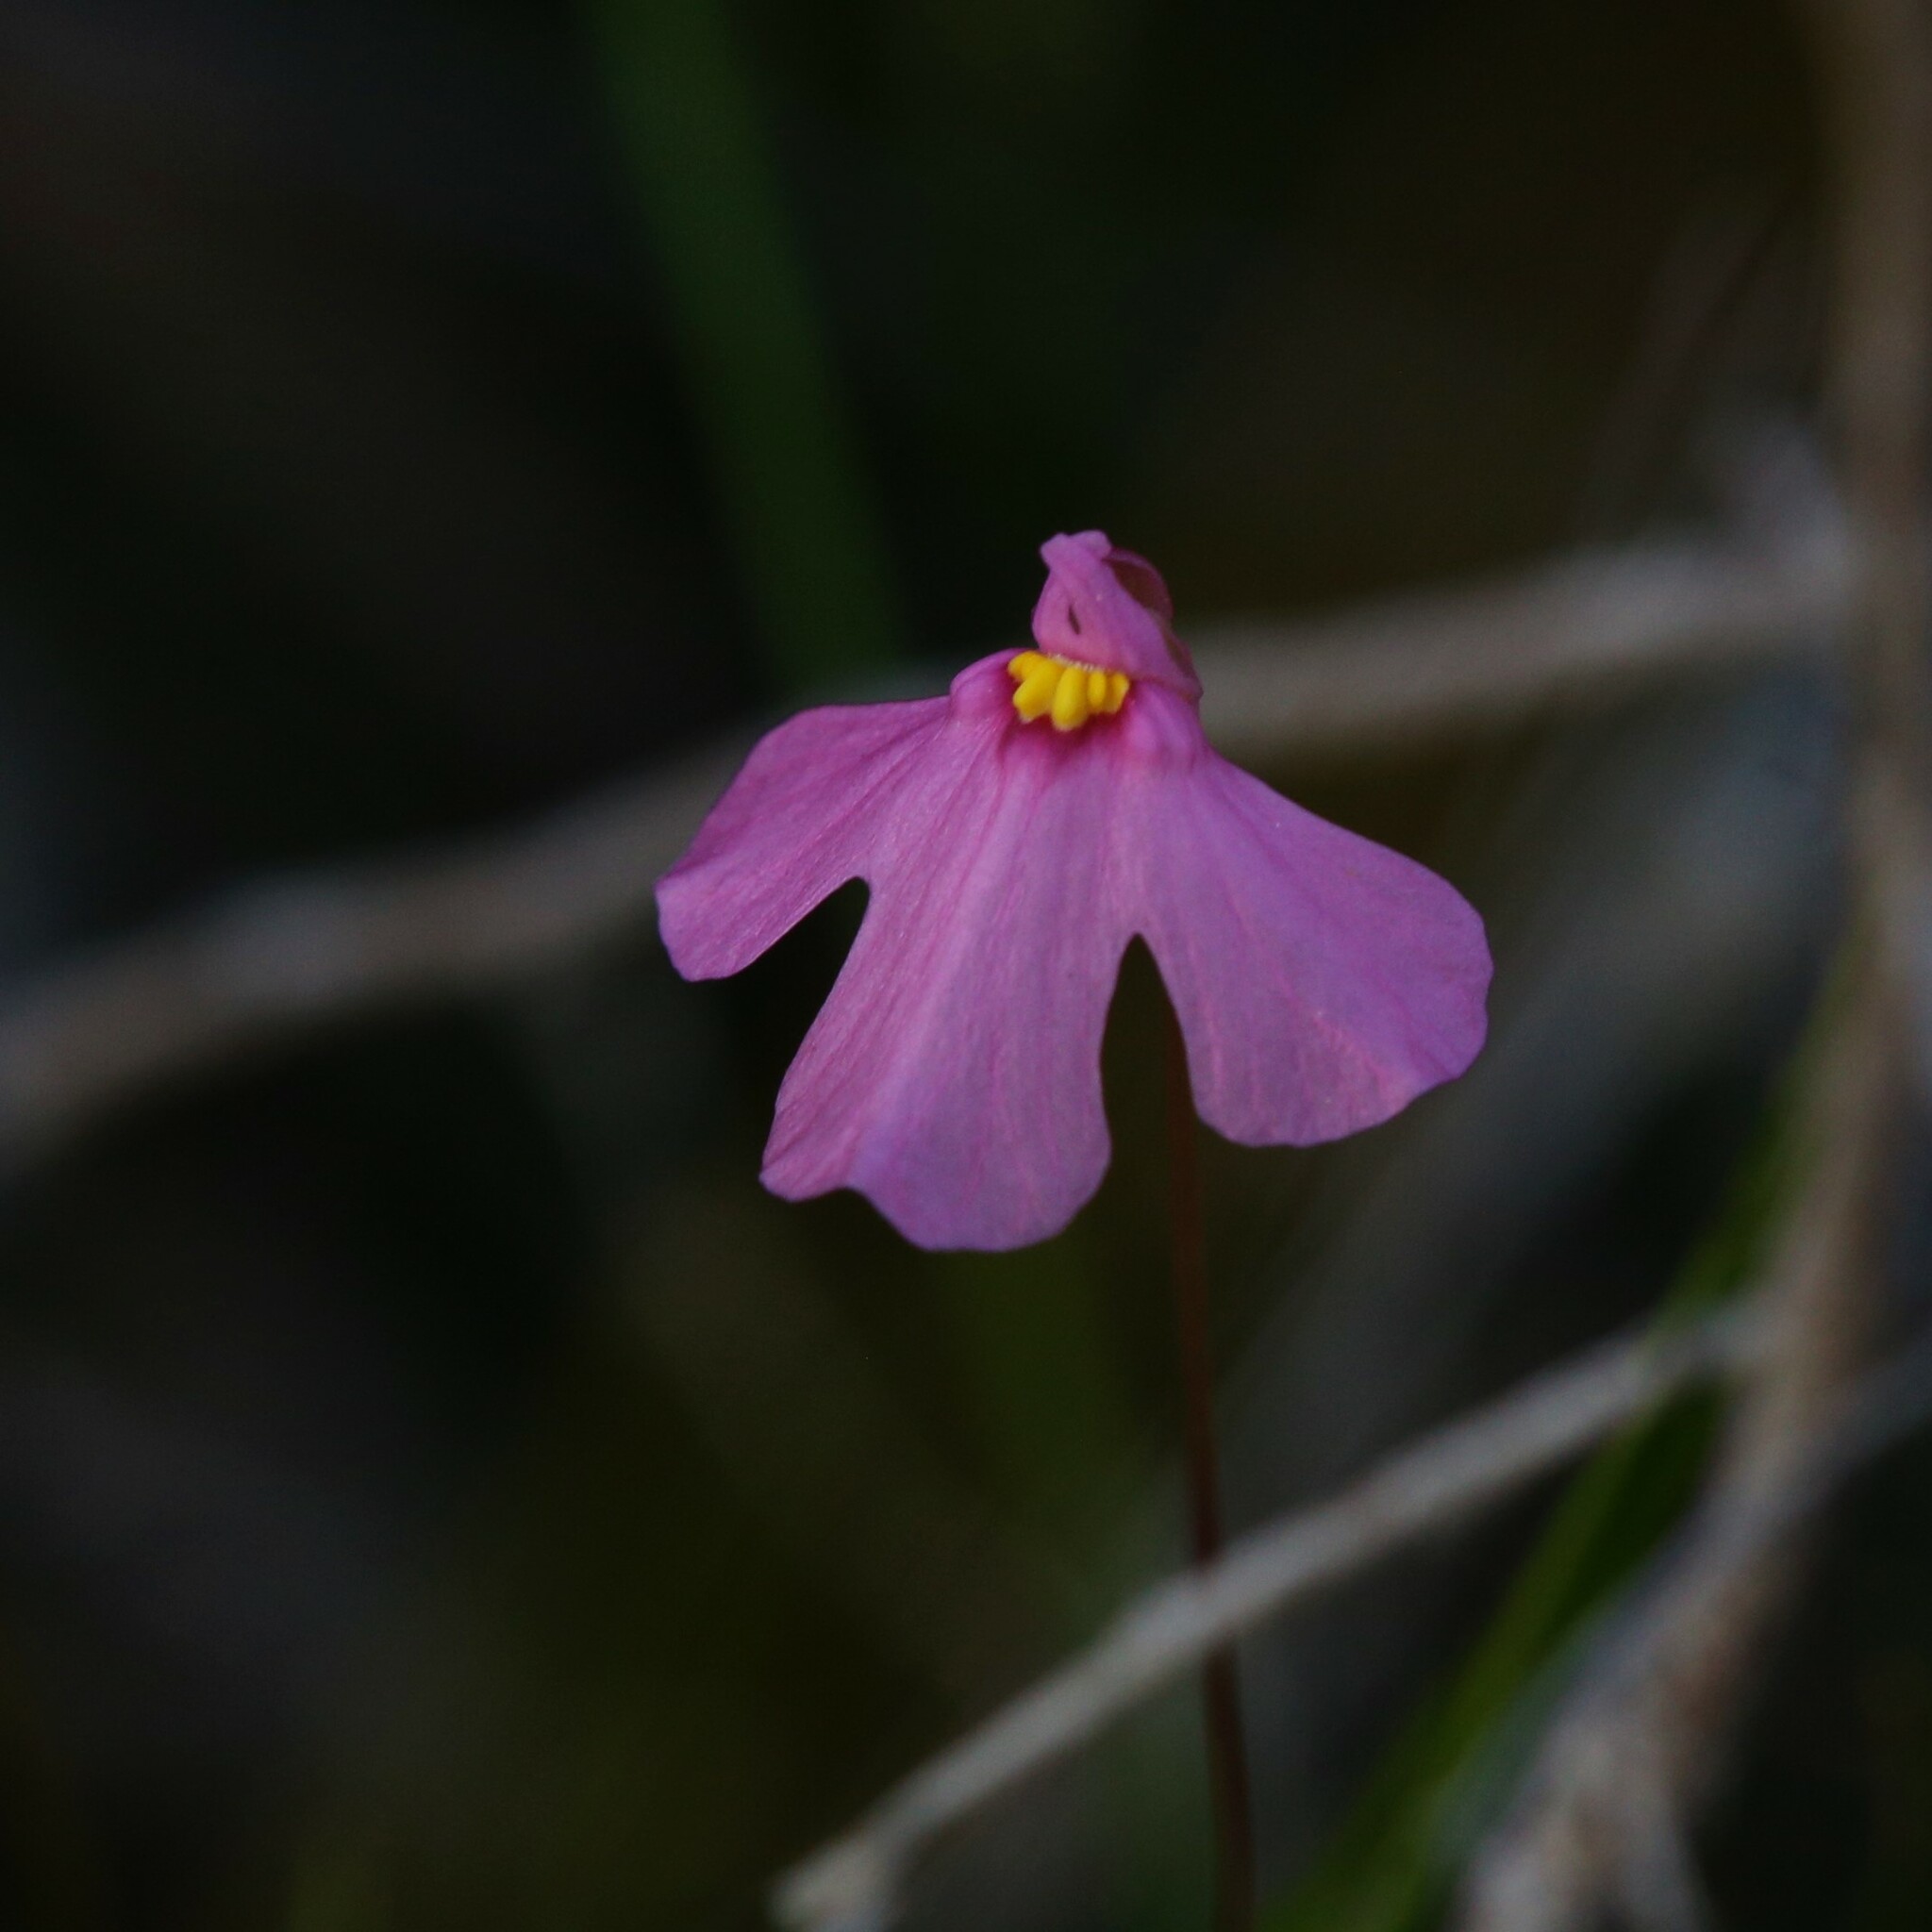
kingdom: Plantae
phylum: Tracheophyta
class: Magnoliopsida
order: Lamiales
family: Lentibulariaceae
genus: Utricularia
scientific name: Utricularia multifida
